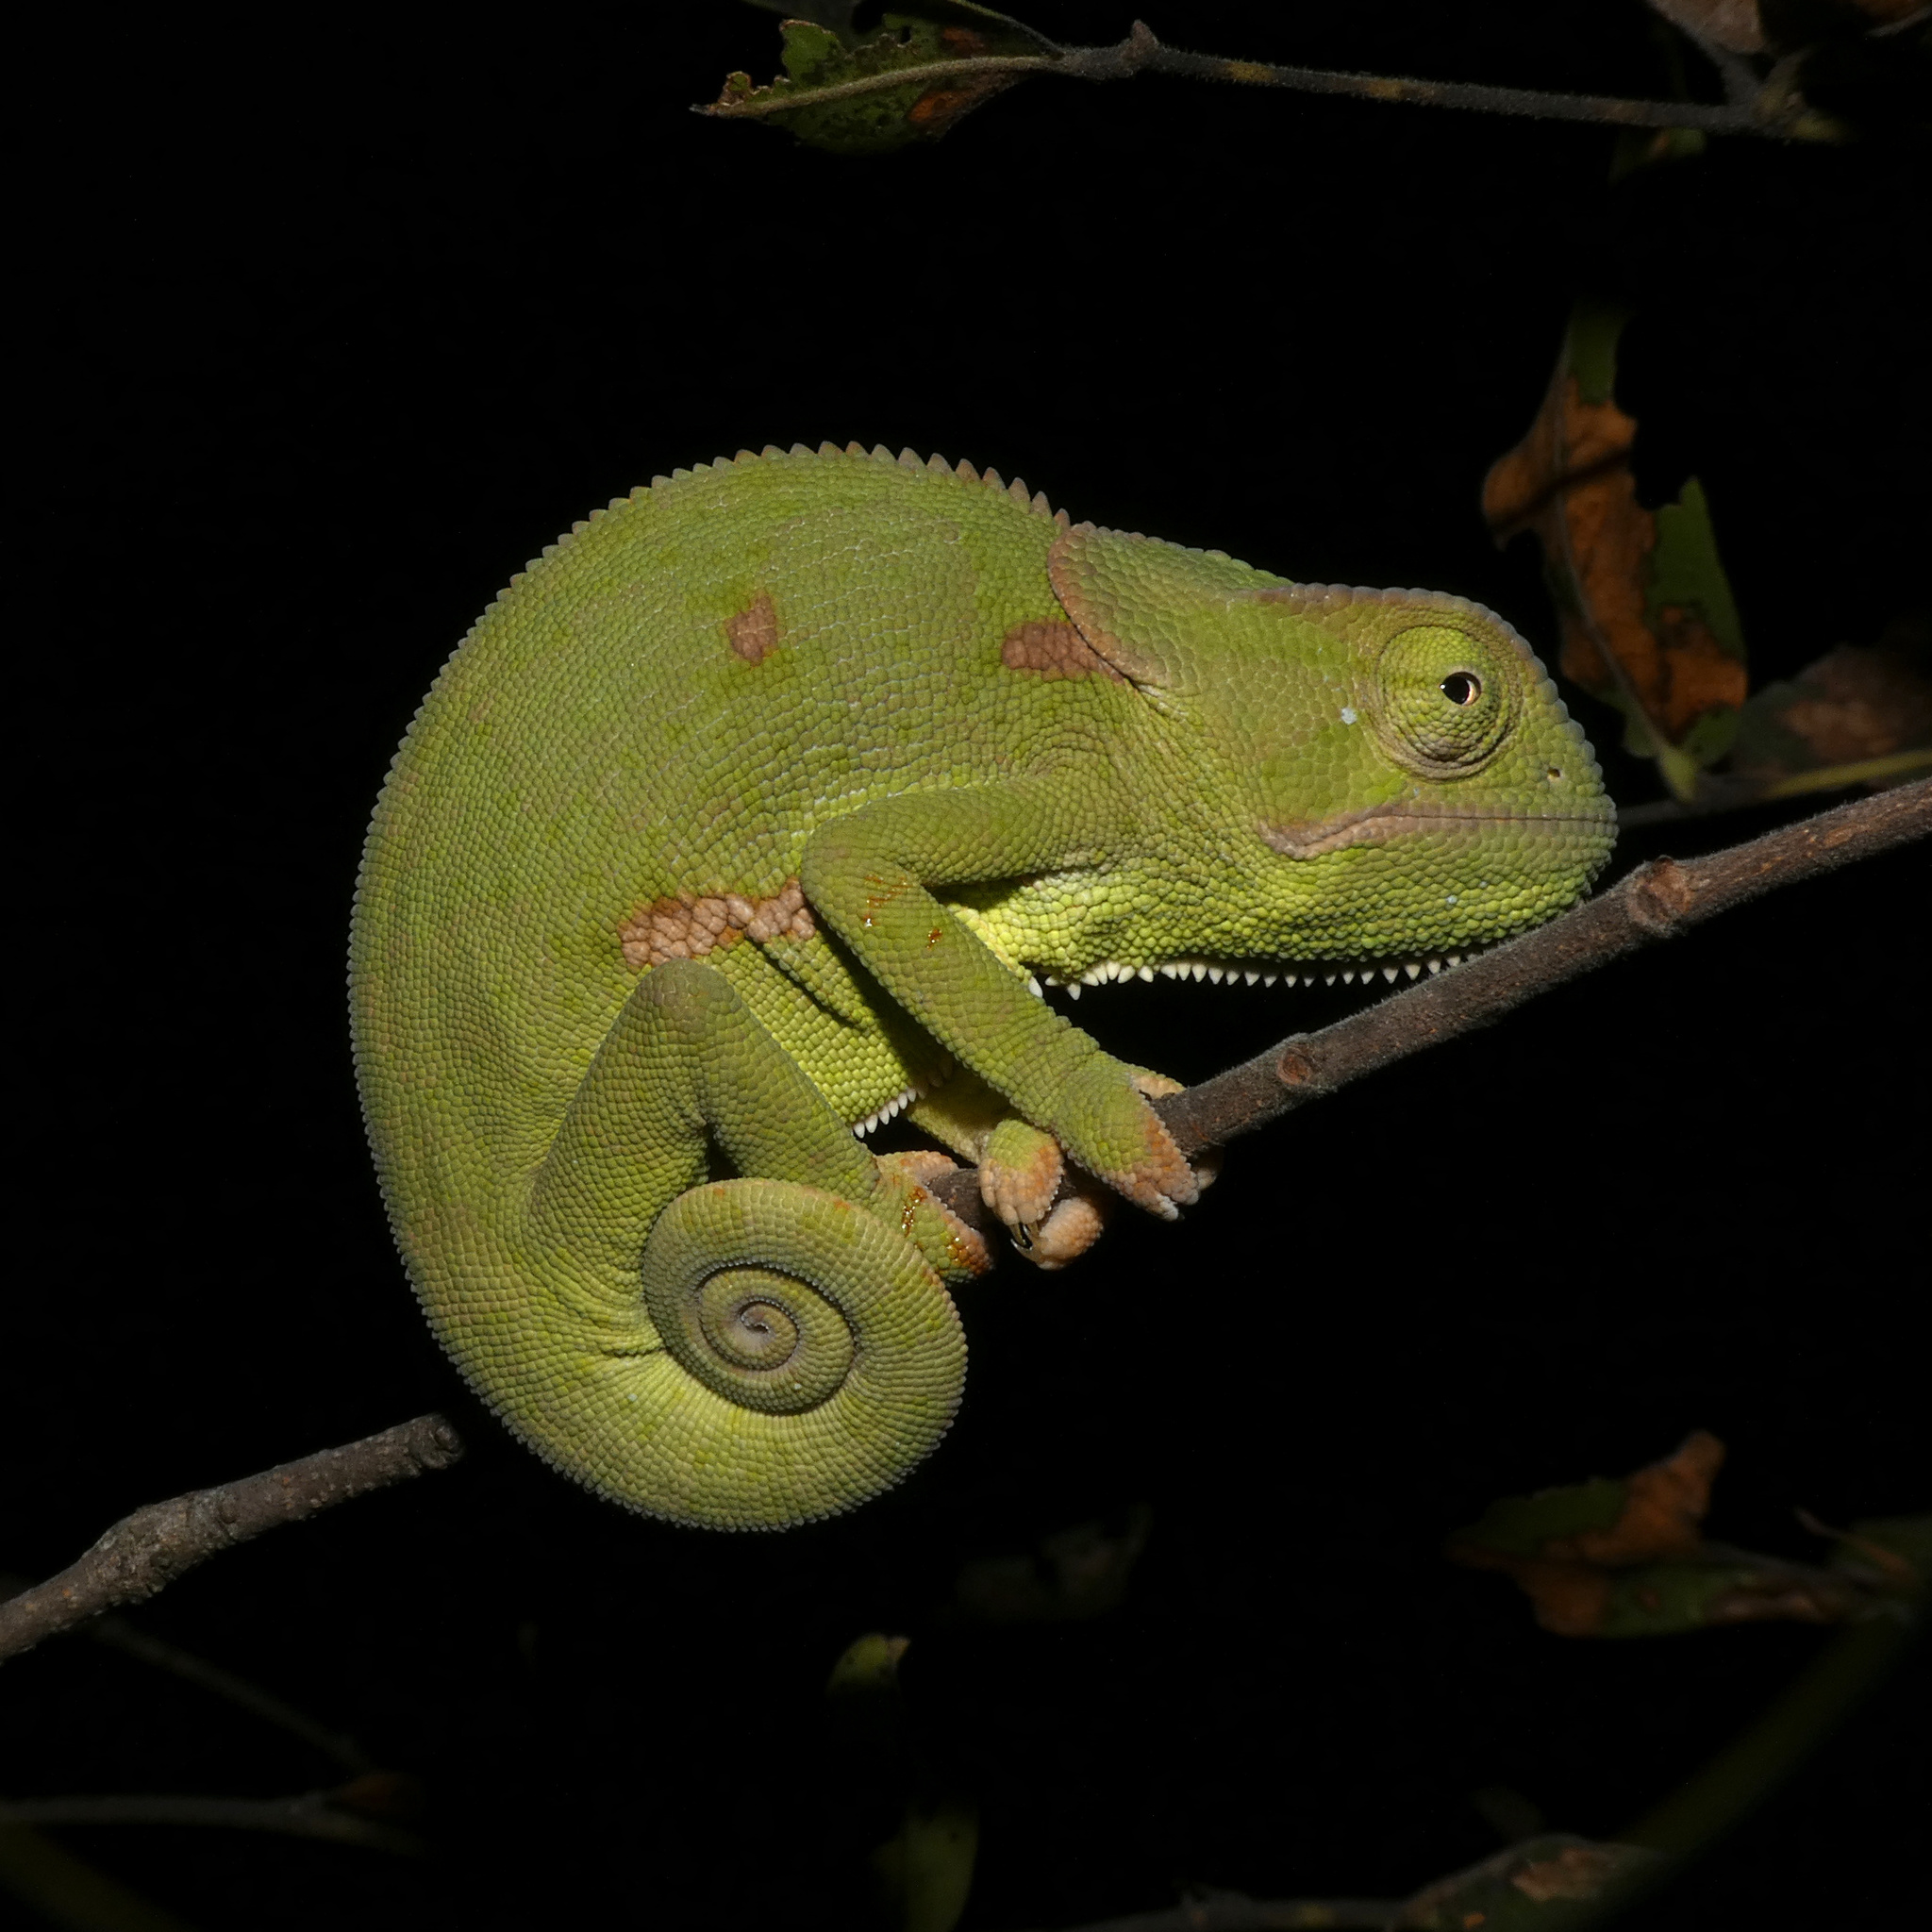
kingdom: Animalia
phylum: Chordata
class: Squamata
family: Chamaeleonidae
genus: Chamaeleo
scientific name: Chamaeleo dilepis
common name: Flapneck chameleon
